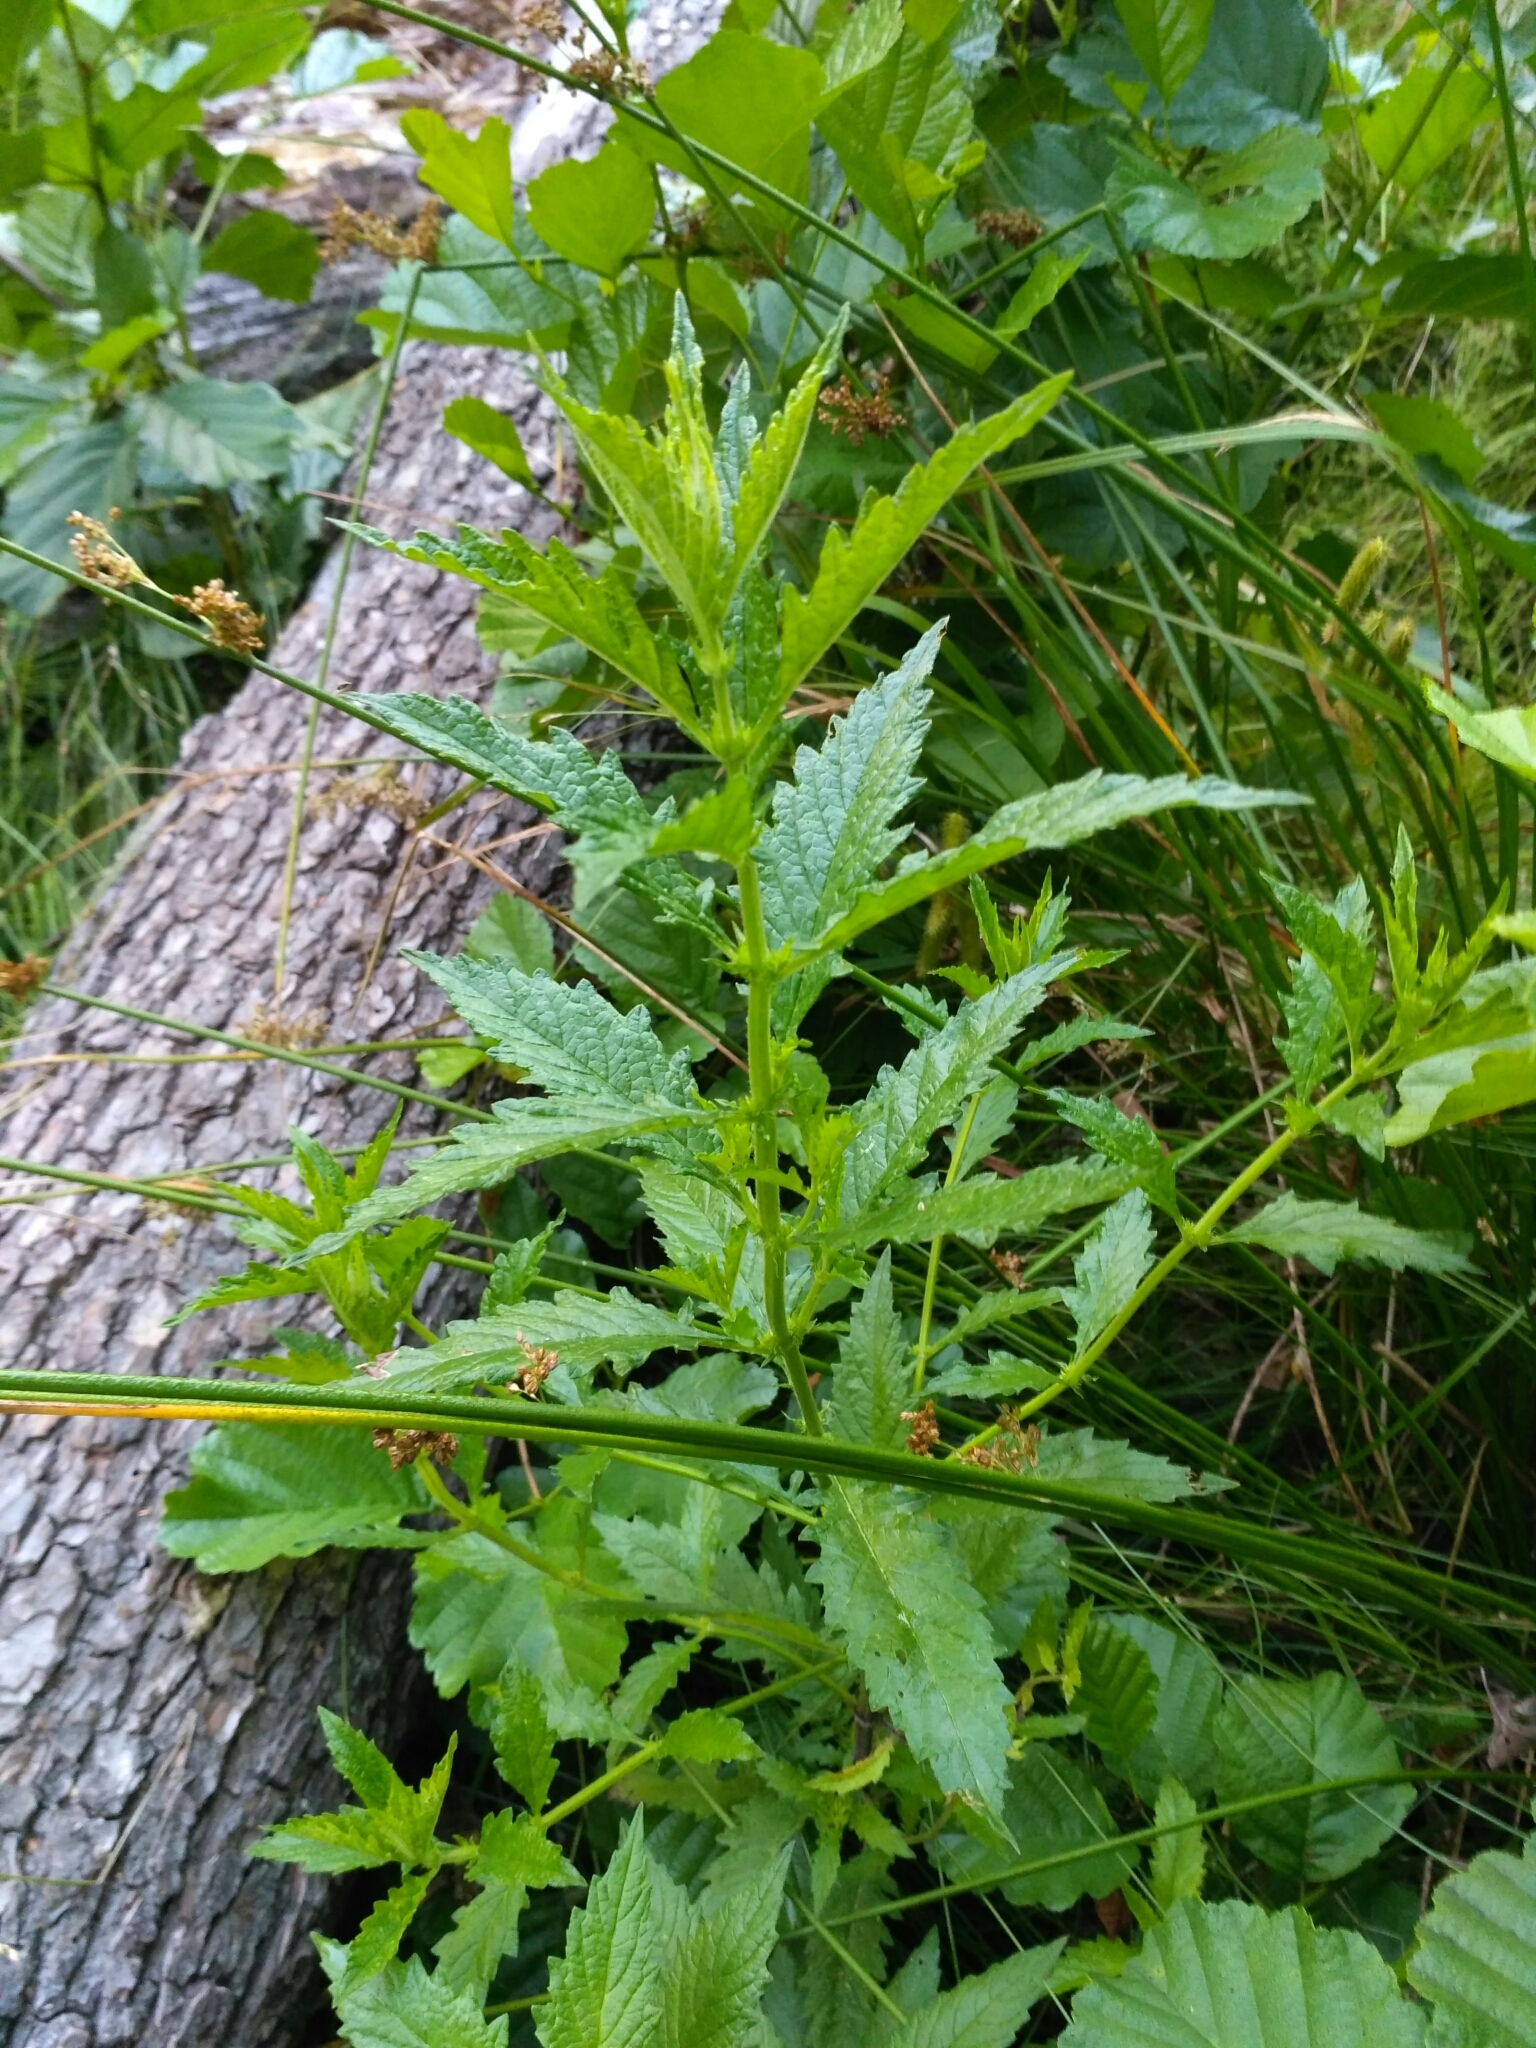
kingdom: Plantae
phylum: Tracheophyta
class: Magnoliopsida
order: Lamiales
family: Lamiaceae
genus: Lycopus
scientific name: Lycopus europaeus
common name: European bugleweed
